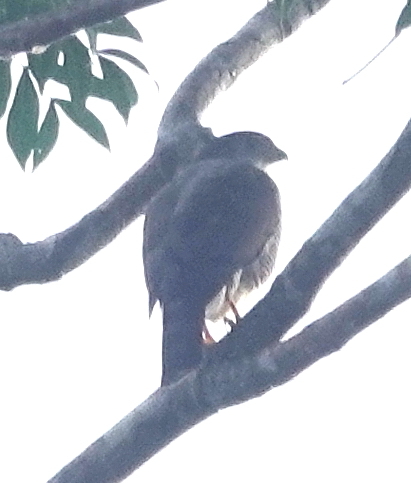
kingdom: Animalia
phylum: Chordata
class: Aves
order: Accipitriformes
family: Accipitridae
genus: Accipiter
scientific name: Accipiter superciliosus
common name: Tiny hawk
